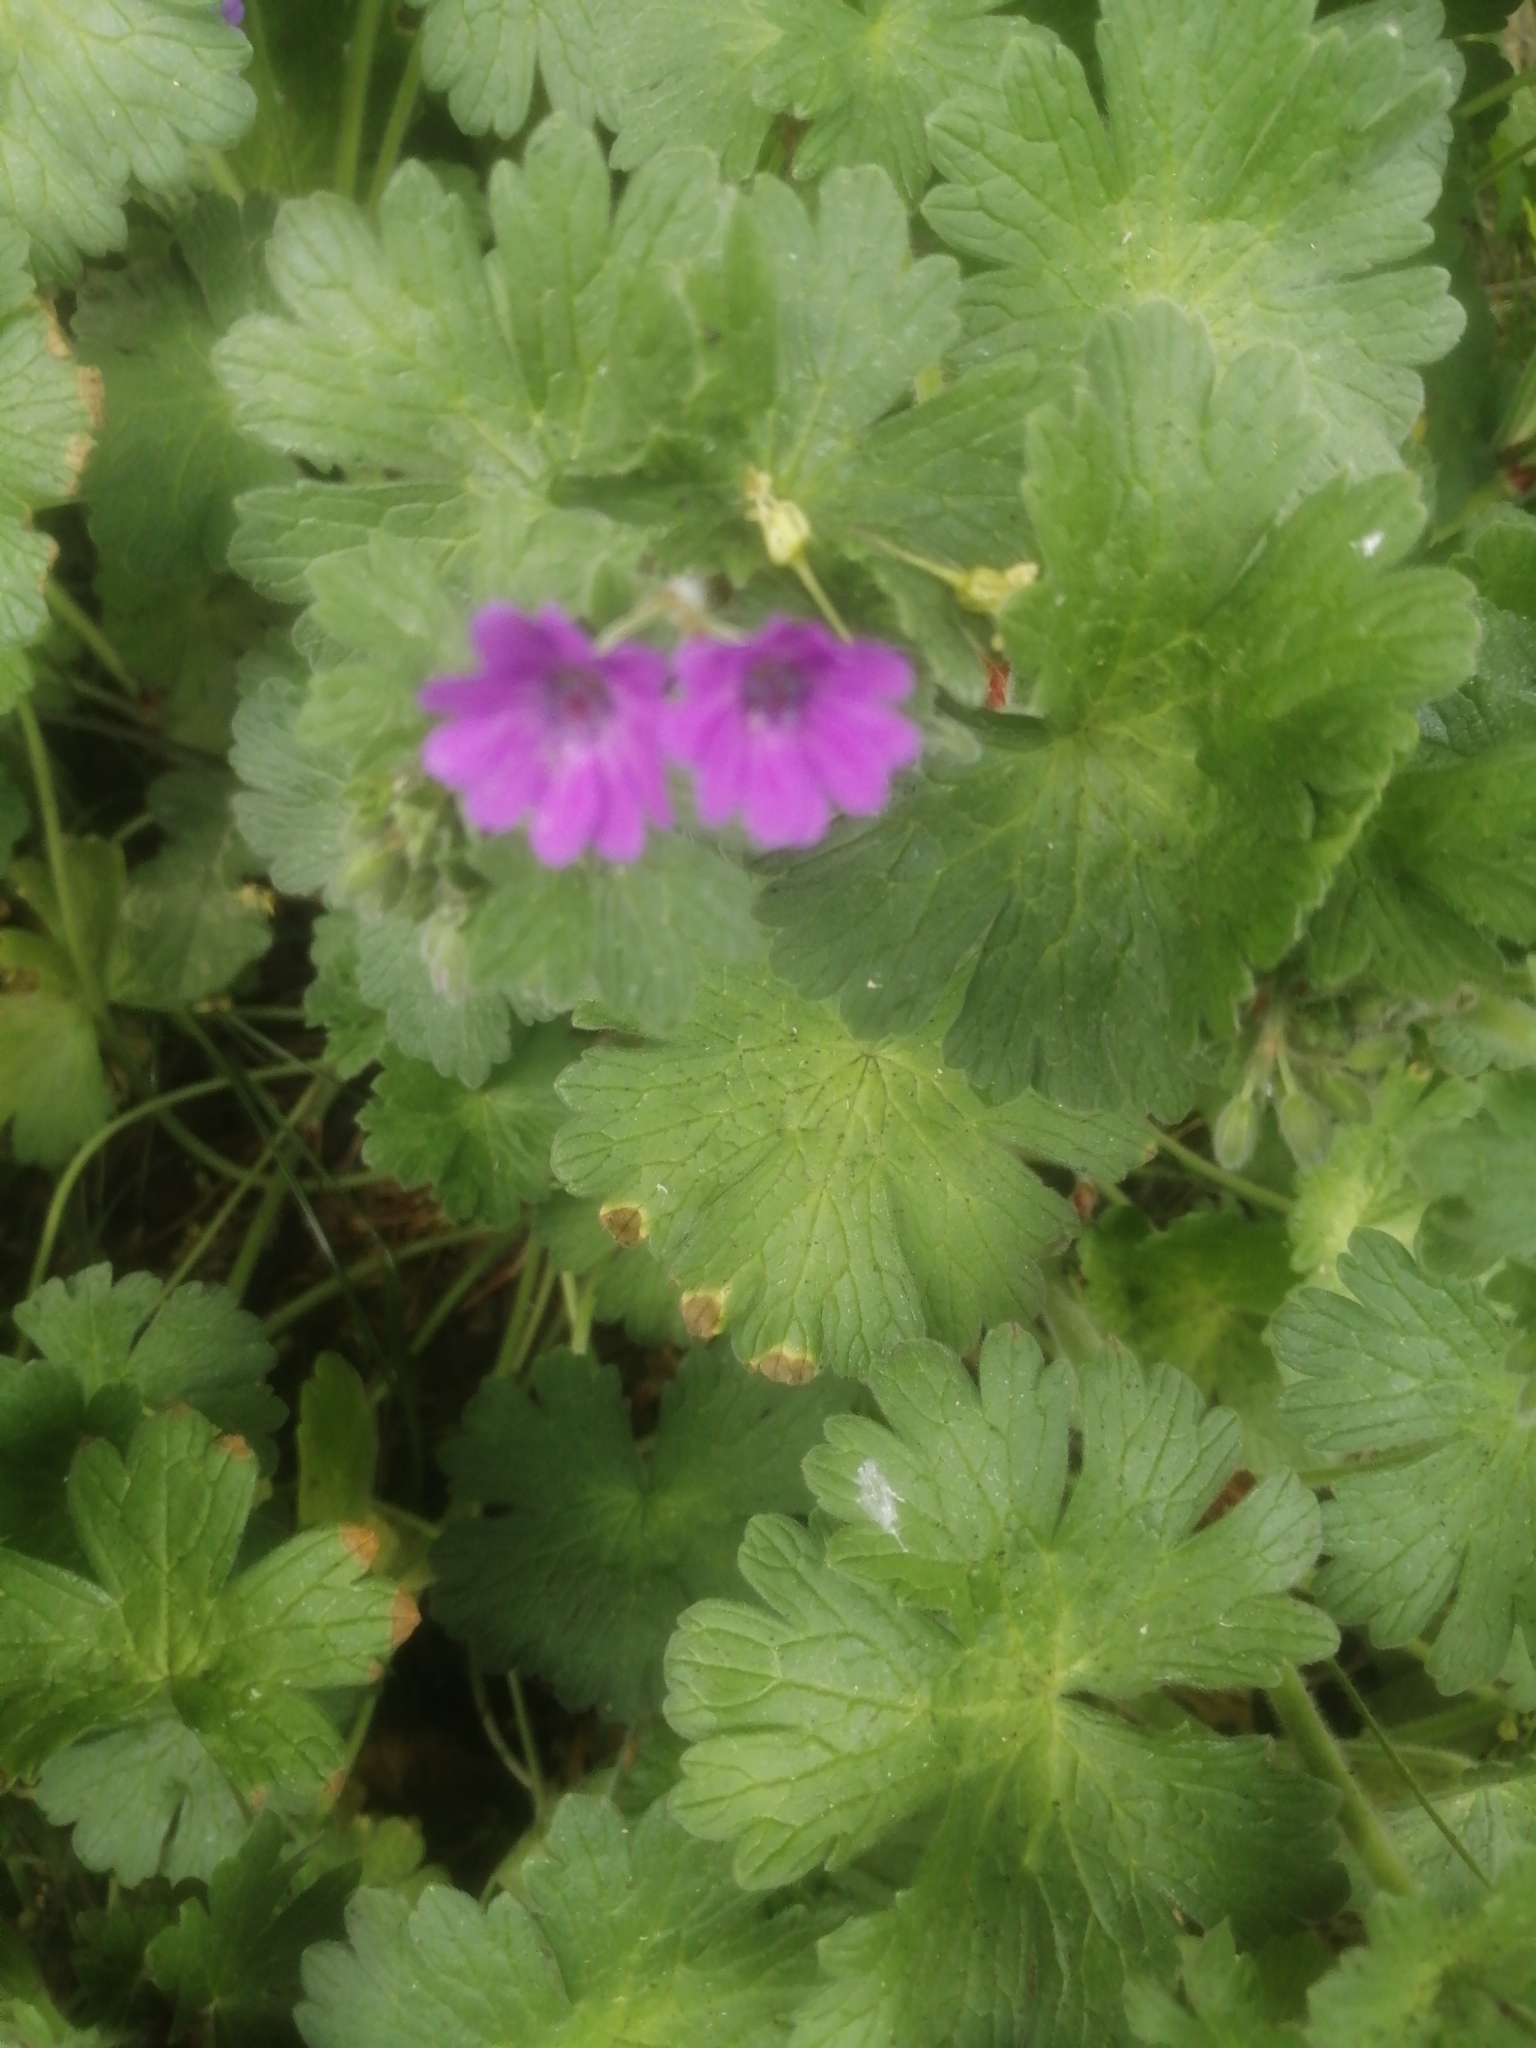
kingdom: Plantae
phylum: Tracheophyta
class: Magnoliopsida
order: Geraniales
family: Geraniaceae
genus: Geranium
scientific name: Geranium molle
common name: Dove's-foot crane's-bill
